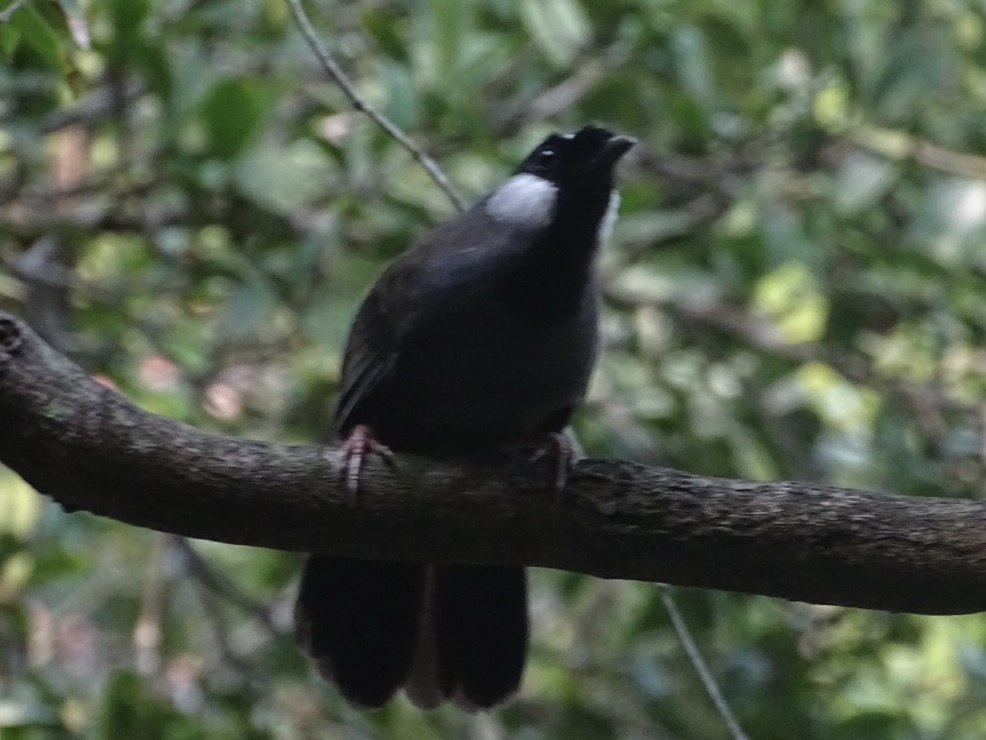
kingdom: Animalia
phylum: Chordata
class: Aves
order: Passeriformes
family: Leiothrichidae
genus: Garrulax
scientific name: Garrulax chinensis
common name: Black-throated laughingthrush
